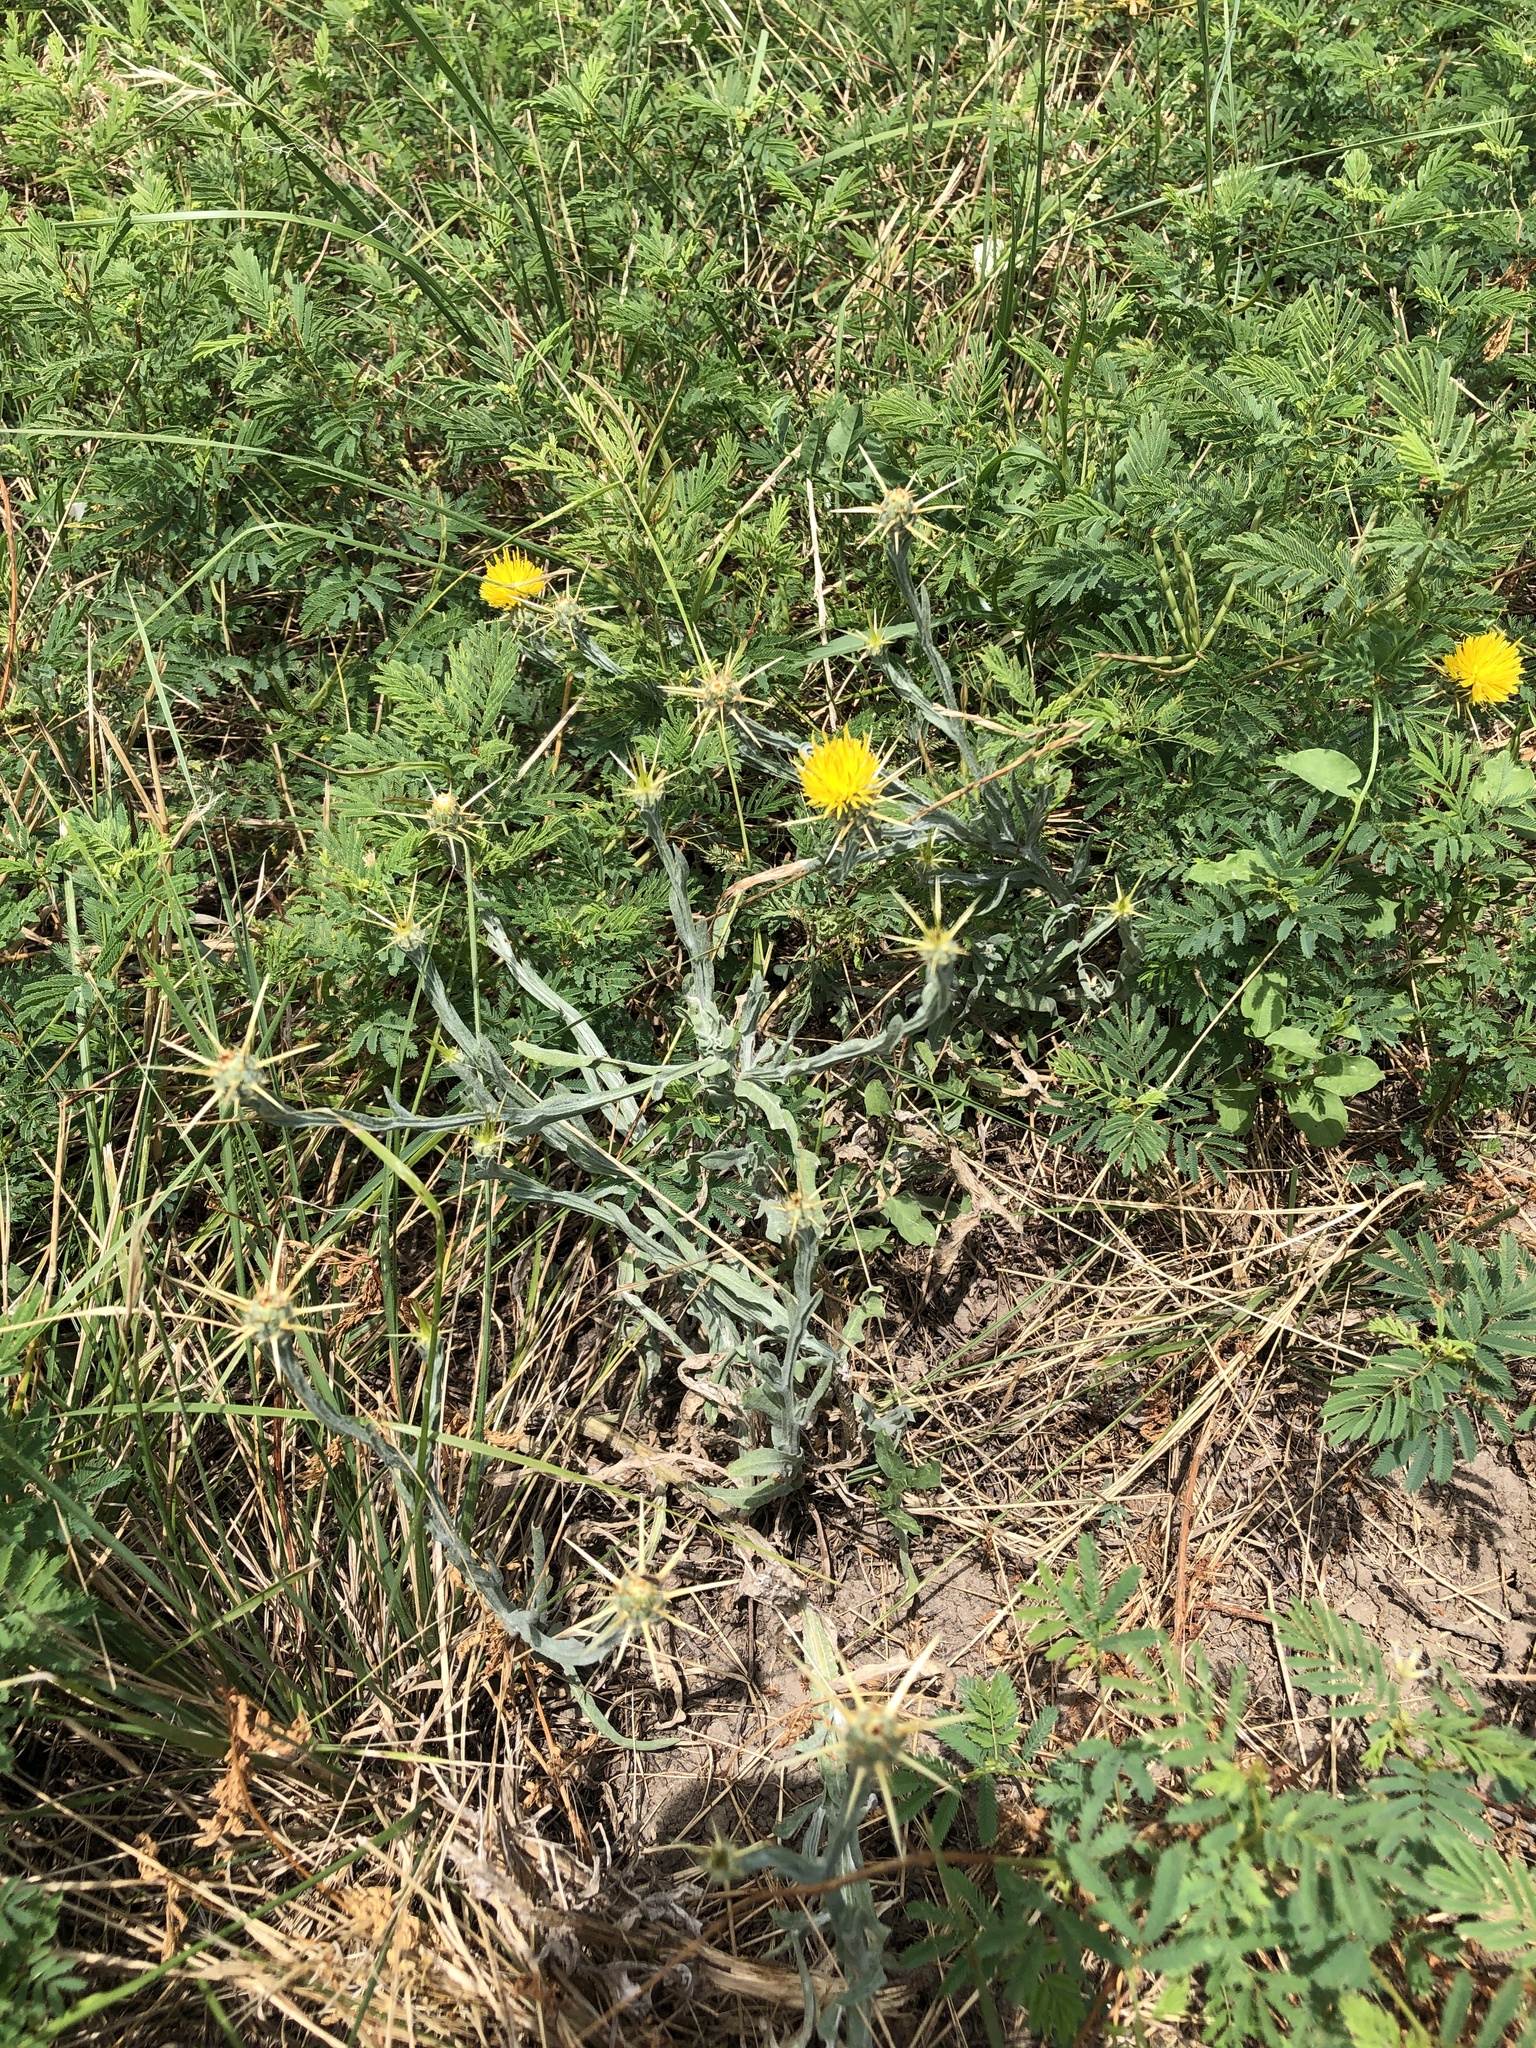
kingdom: Plantae
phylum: Tracheophyta
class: Magnoliopsida
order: Asterales
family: Asteraceae
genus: Centaurea
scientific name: Centaurea solstitialis
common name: Yellow star-thistle
